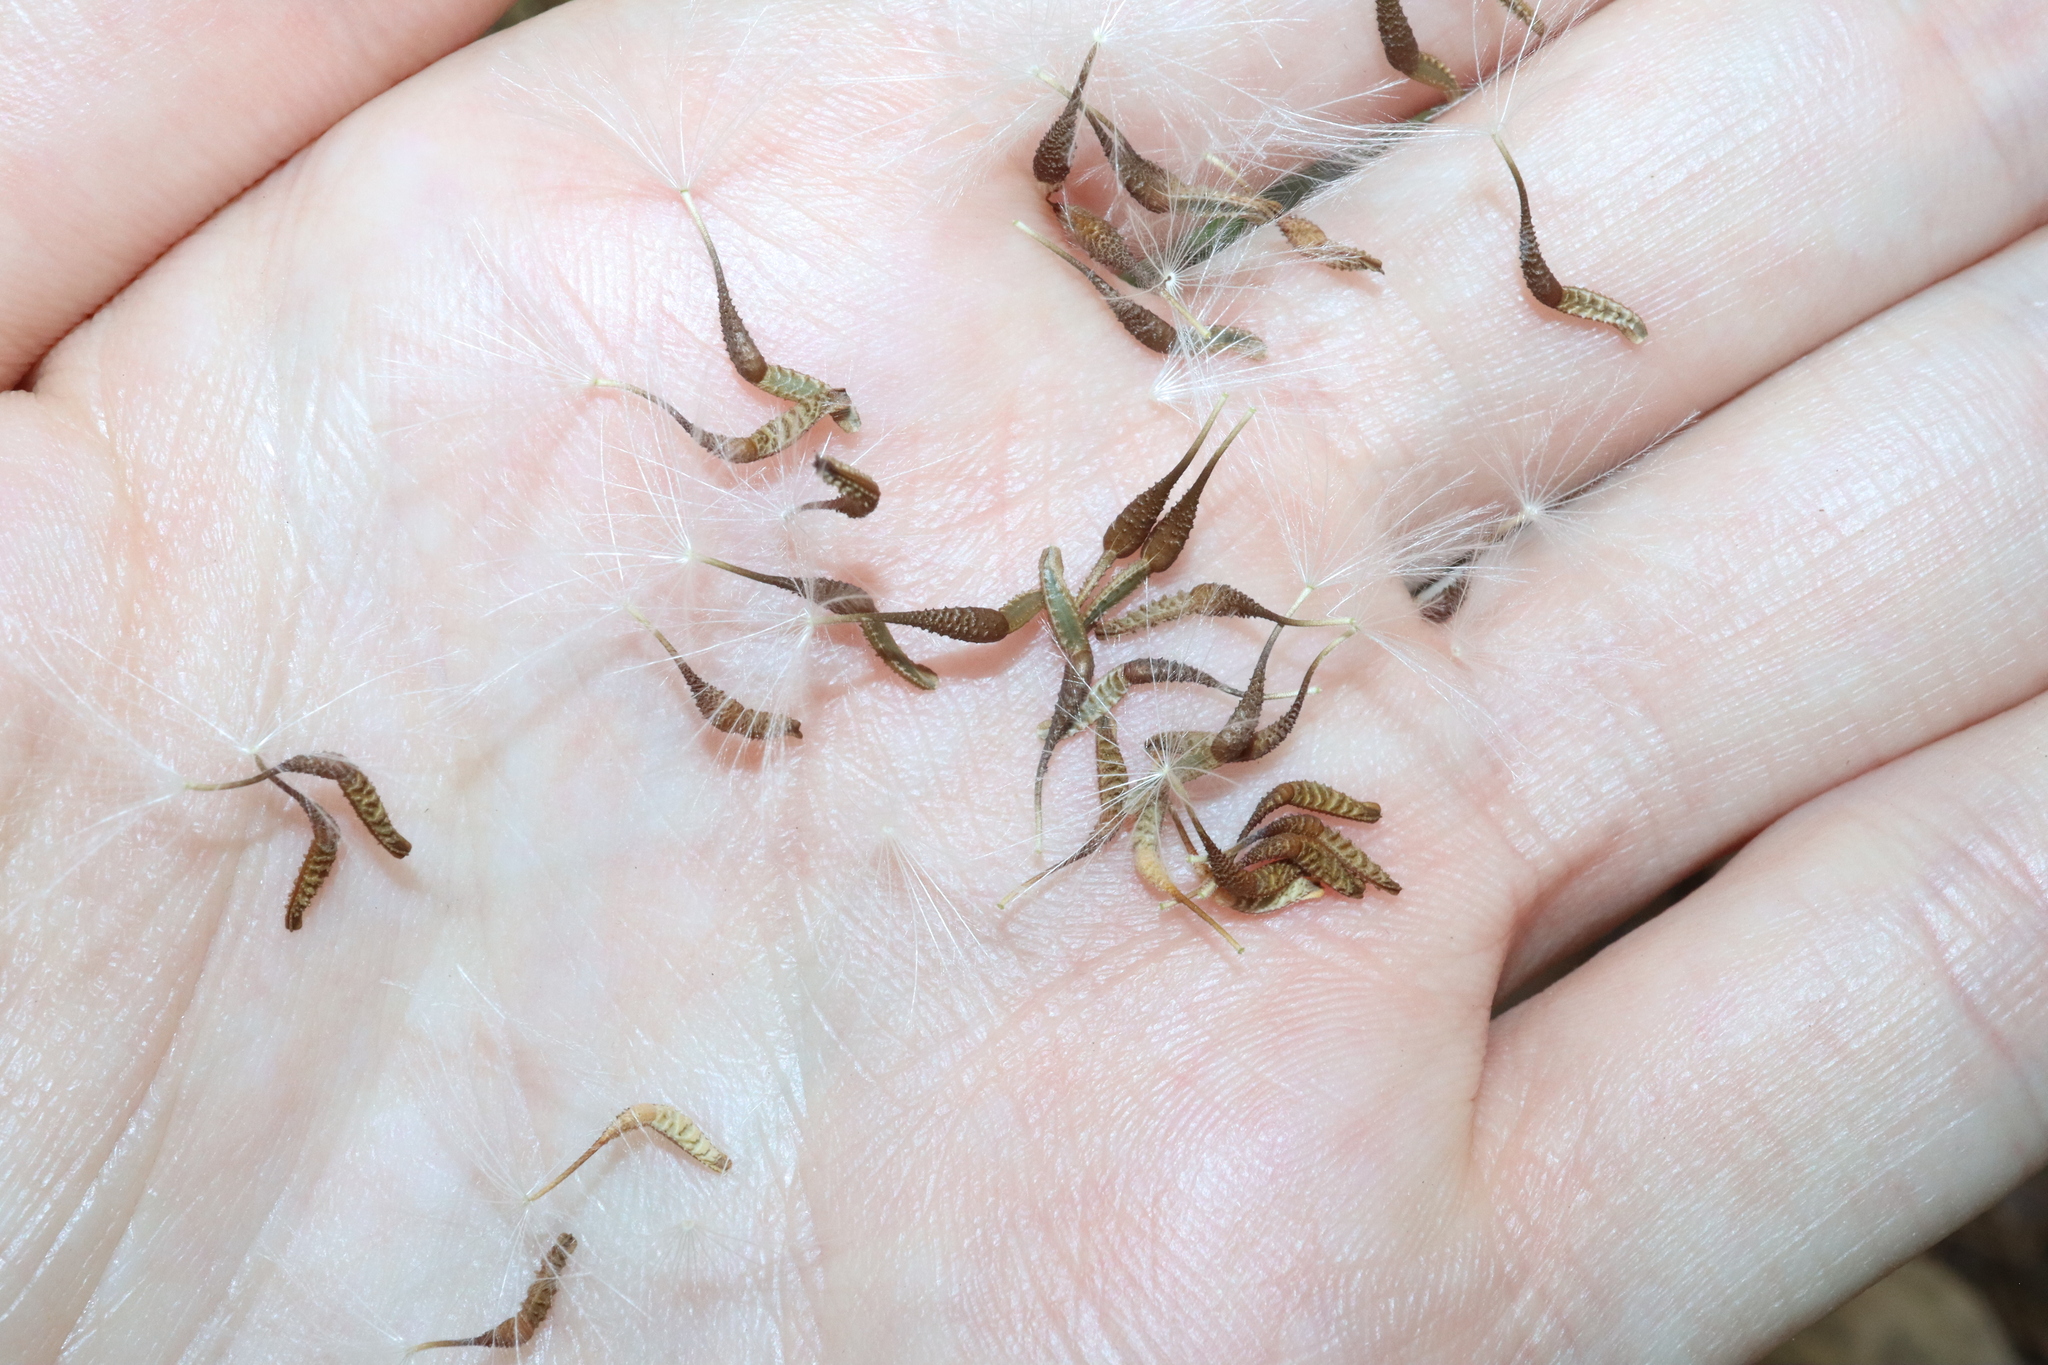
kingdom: Plantae
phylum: Tracheophyta
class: Magnoliopsida
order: Asterales
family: Asteraceae
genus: Urospermum
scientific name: Urospermum picroides
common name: False hawkbit
